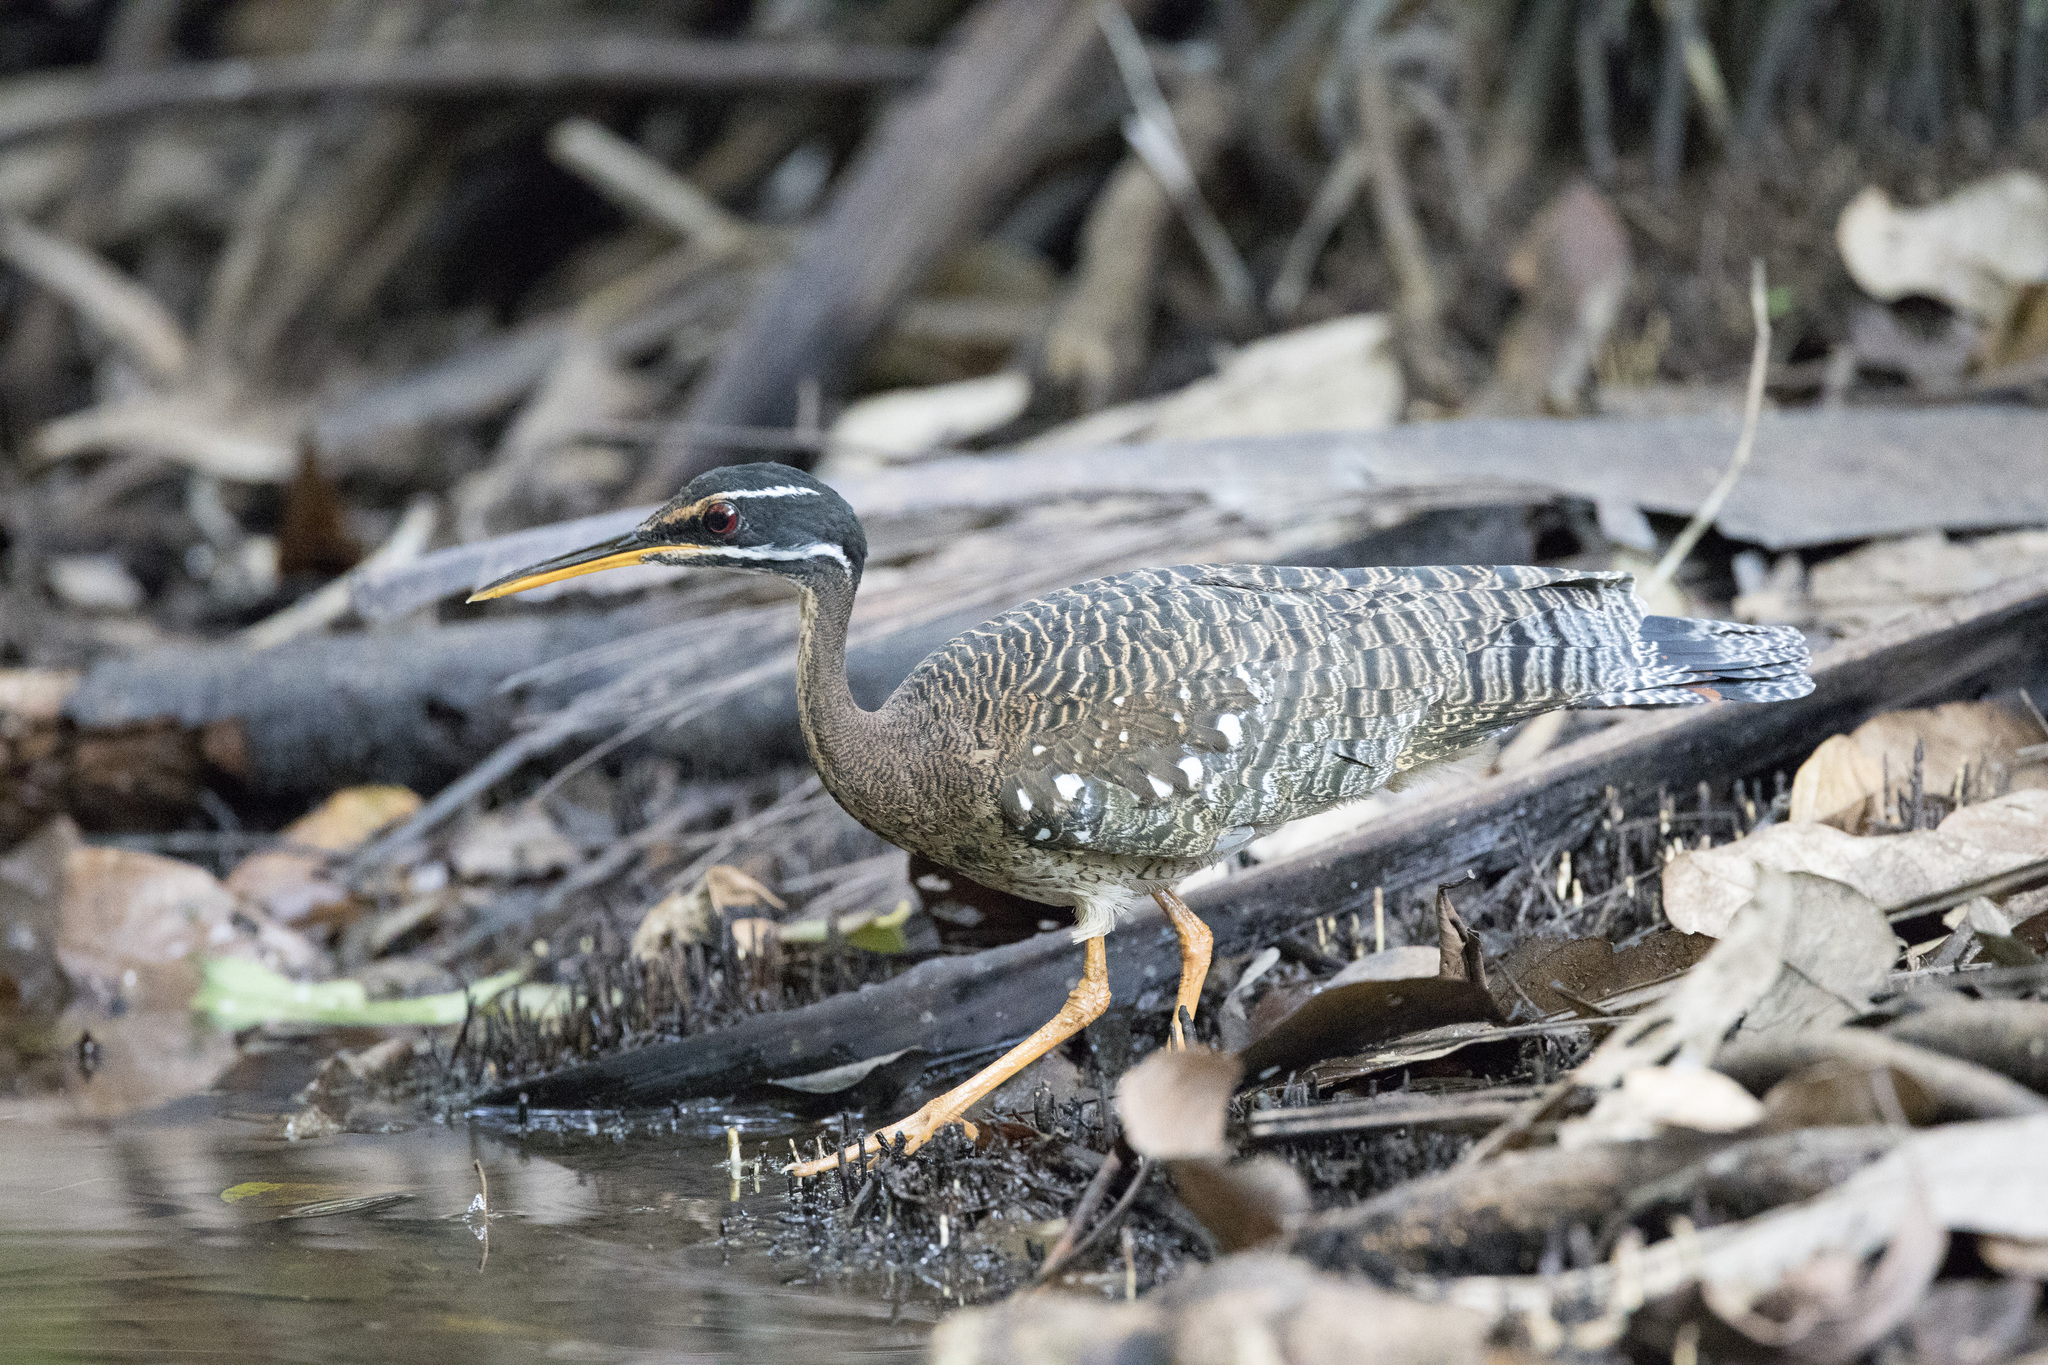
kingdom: Animalia
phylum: Chordata
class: Aves
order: Eurypygiformes
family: Eurypygidae
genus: Eurypyga
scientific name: Eurypyga helias
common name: Sunbittern
